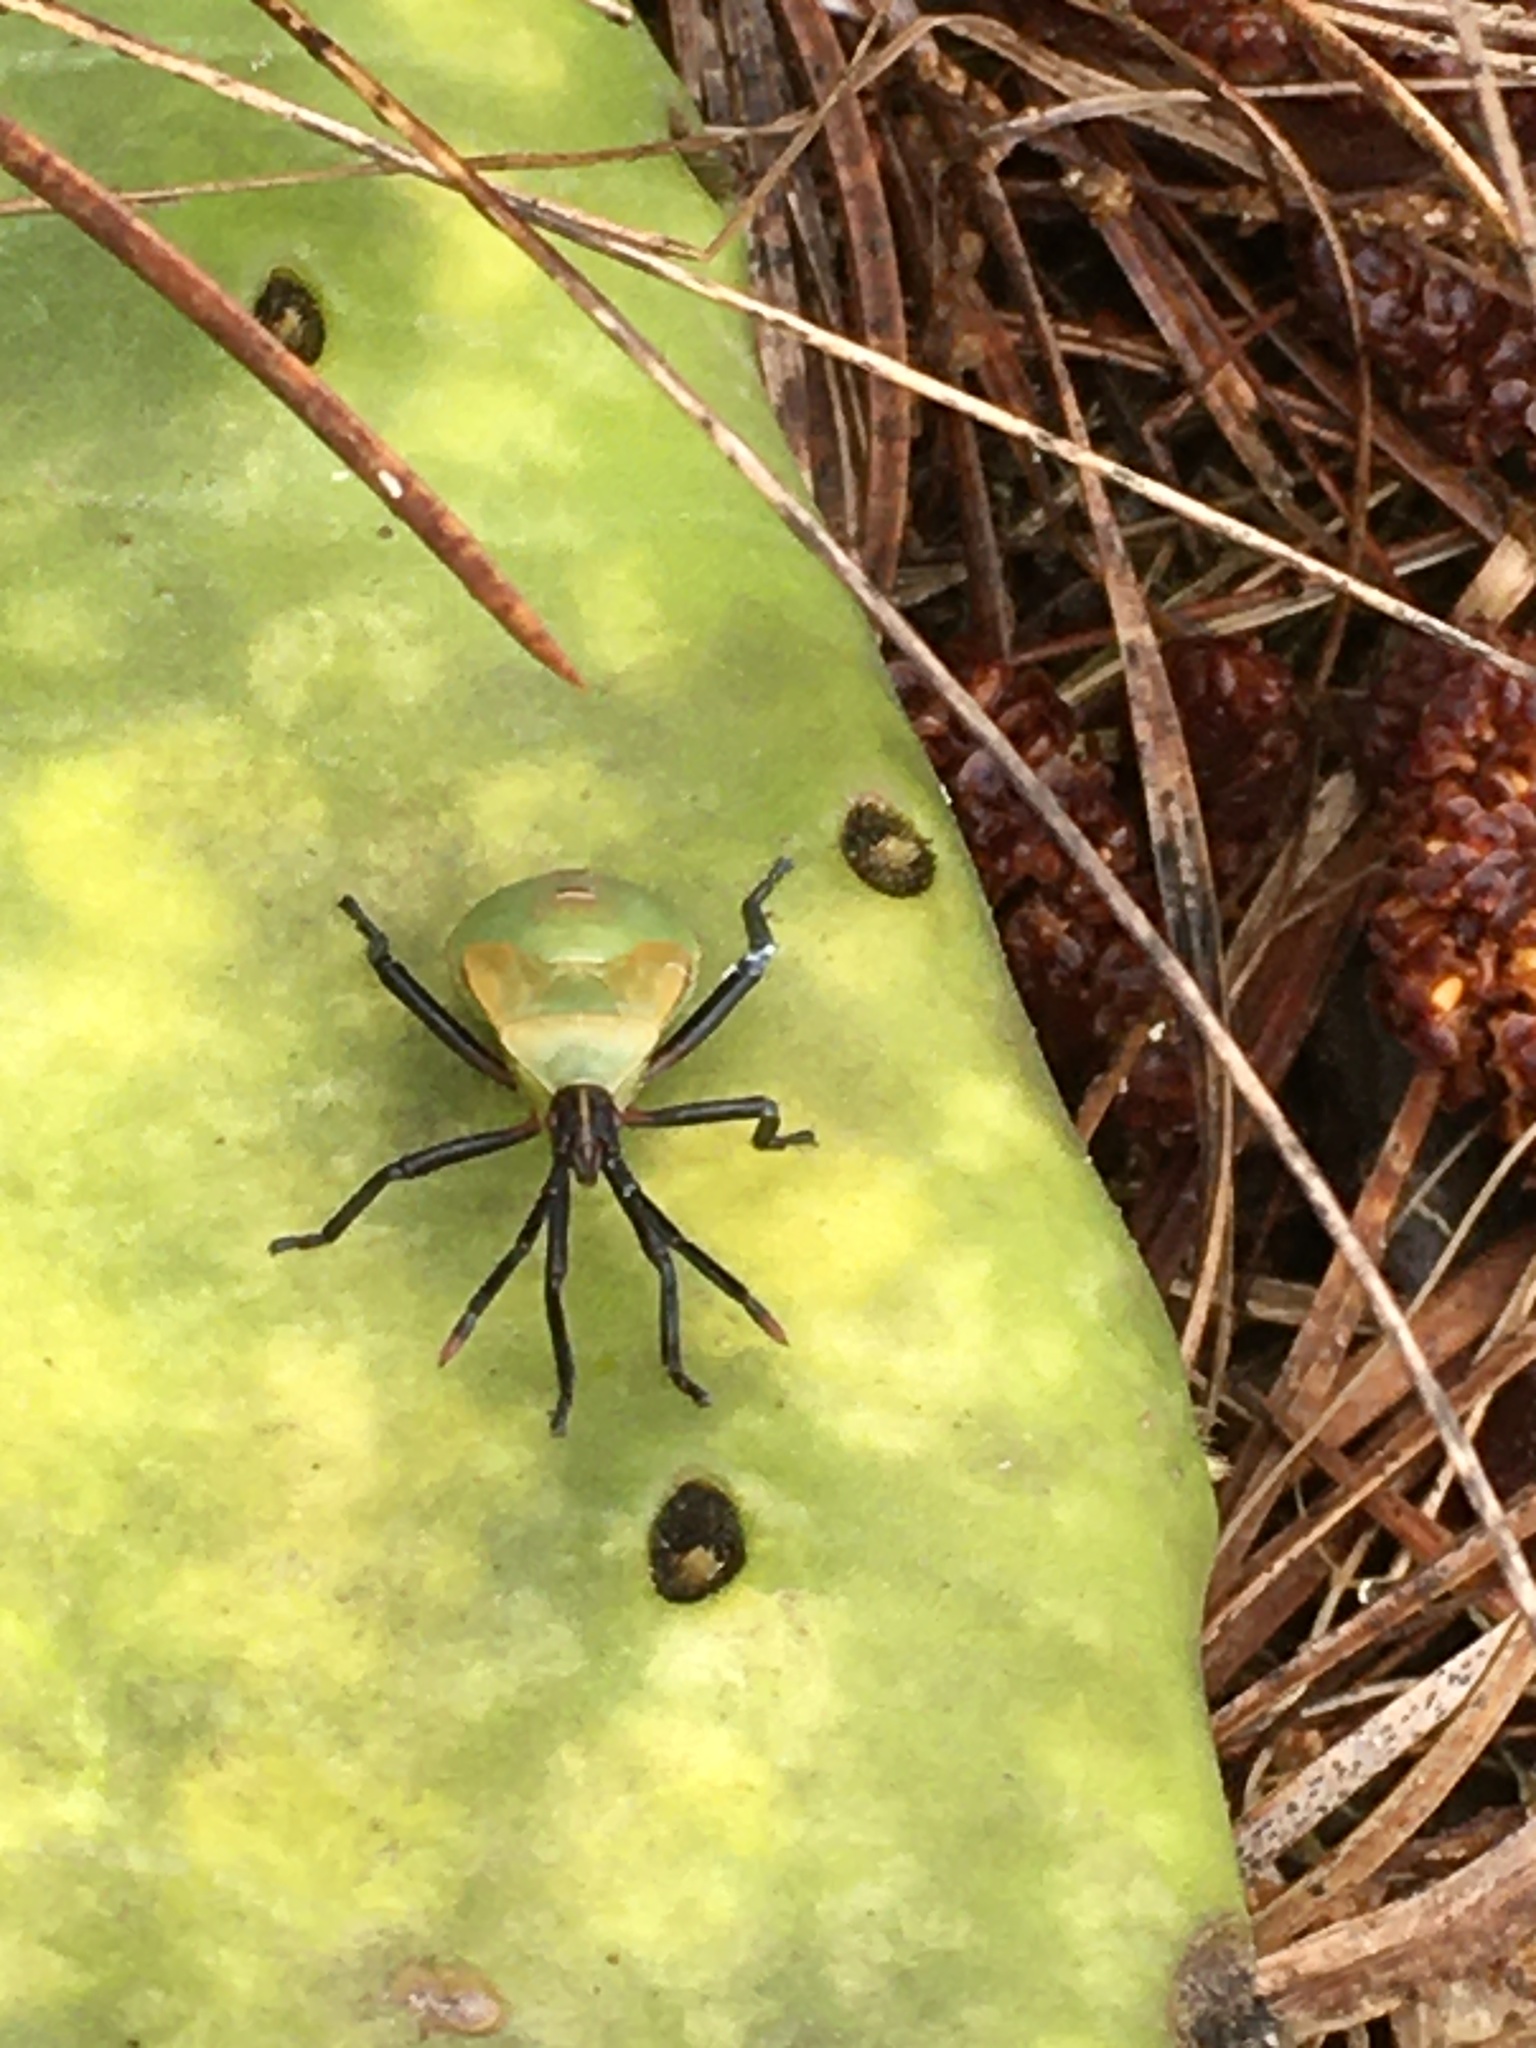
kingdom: Animalia
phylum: Arthropoda
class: Insecta
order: Hemiptera
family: Coreidae
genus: Chelinidea
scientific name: Chelinidea vittiger
